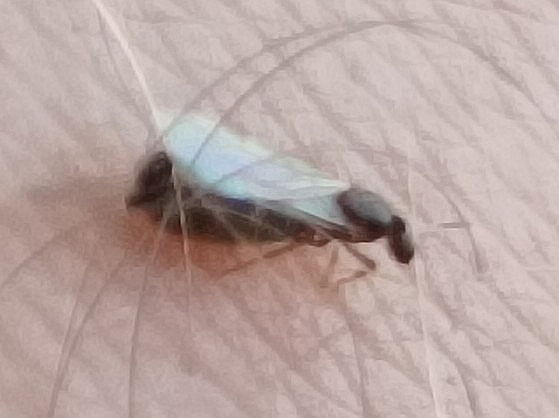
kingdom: Animalia
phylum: Arthropoda
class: Insecta
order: Hymenoptera
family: Formicidae
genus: Brachymyrmex
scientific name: Brachymyrmex cordemoyi
